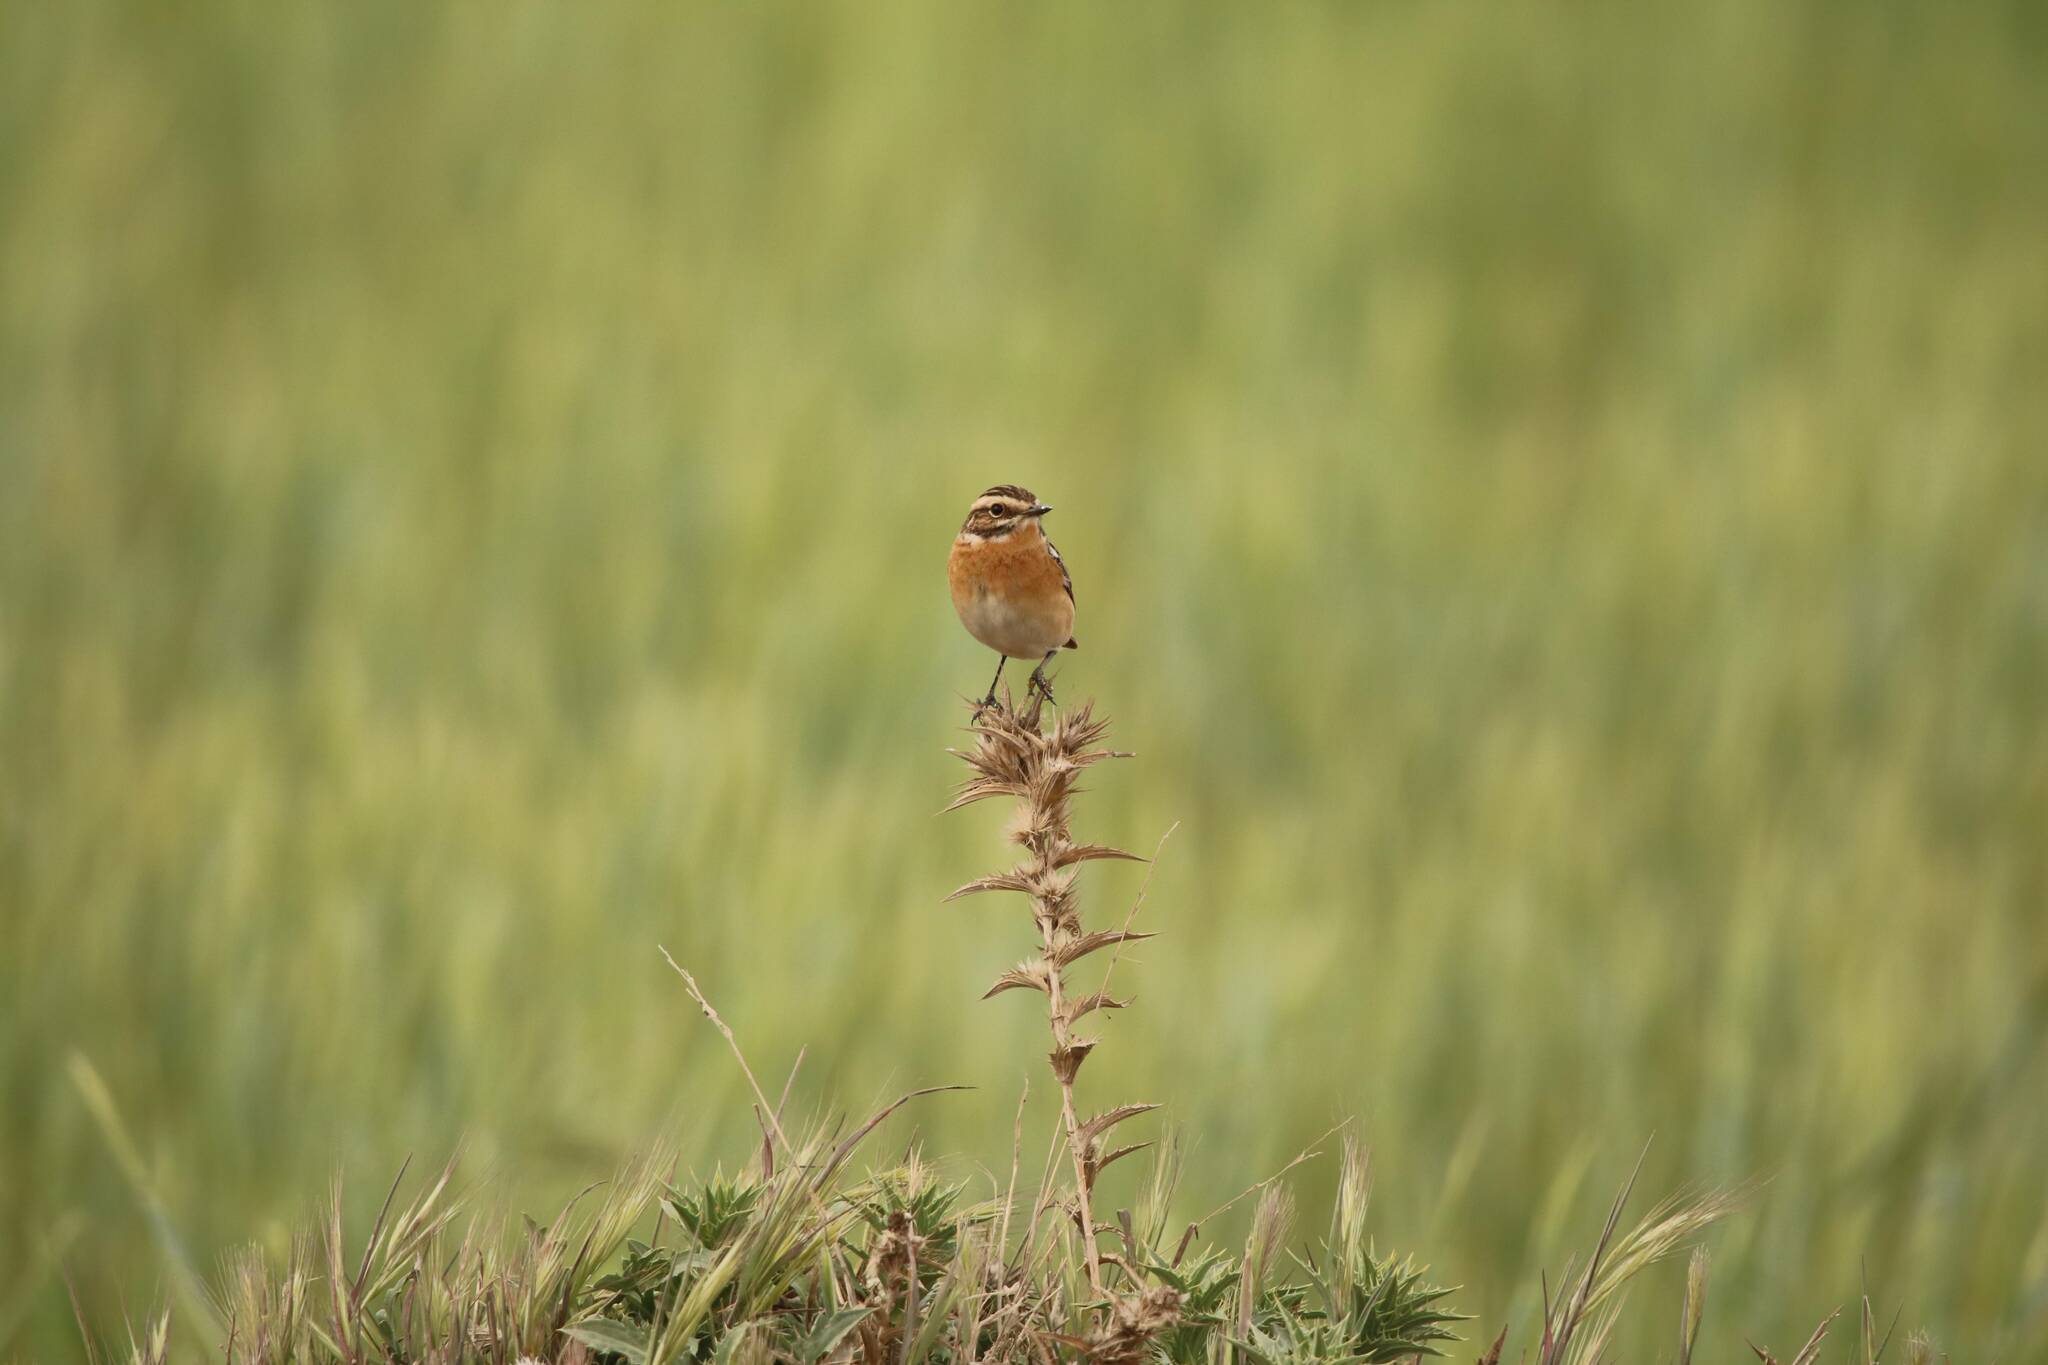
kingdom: Animalia
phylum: Chordata
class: Aves
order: Passeriformes
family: Muscicapidae
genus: Saxicola
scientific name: Saxicola rubetra
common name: Whinchat
